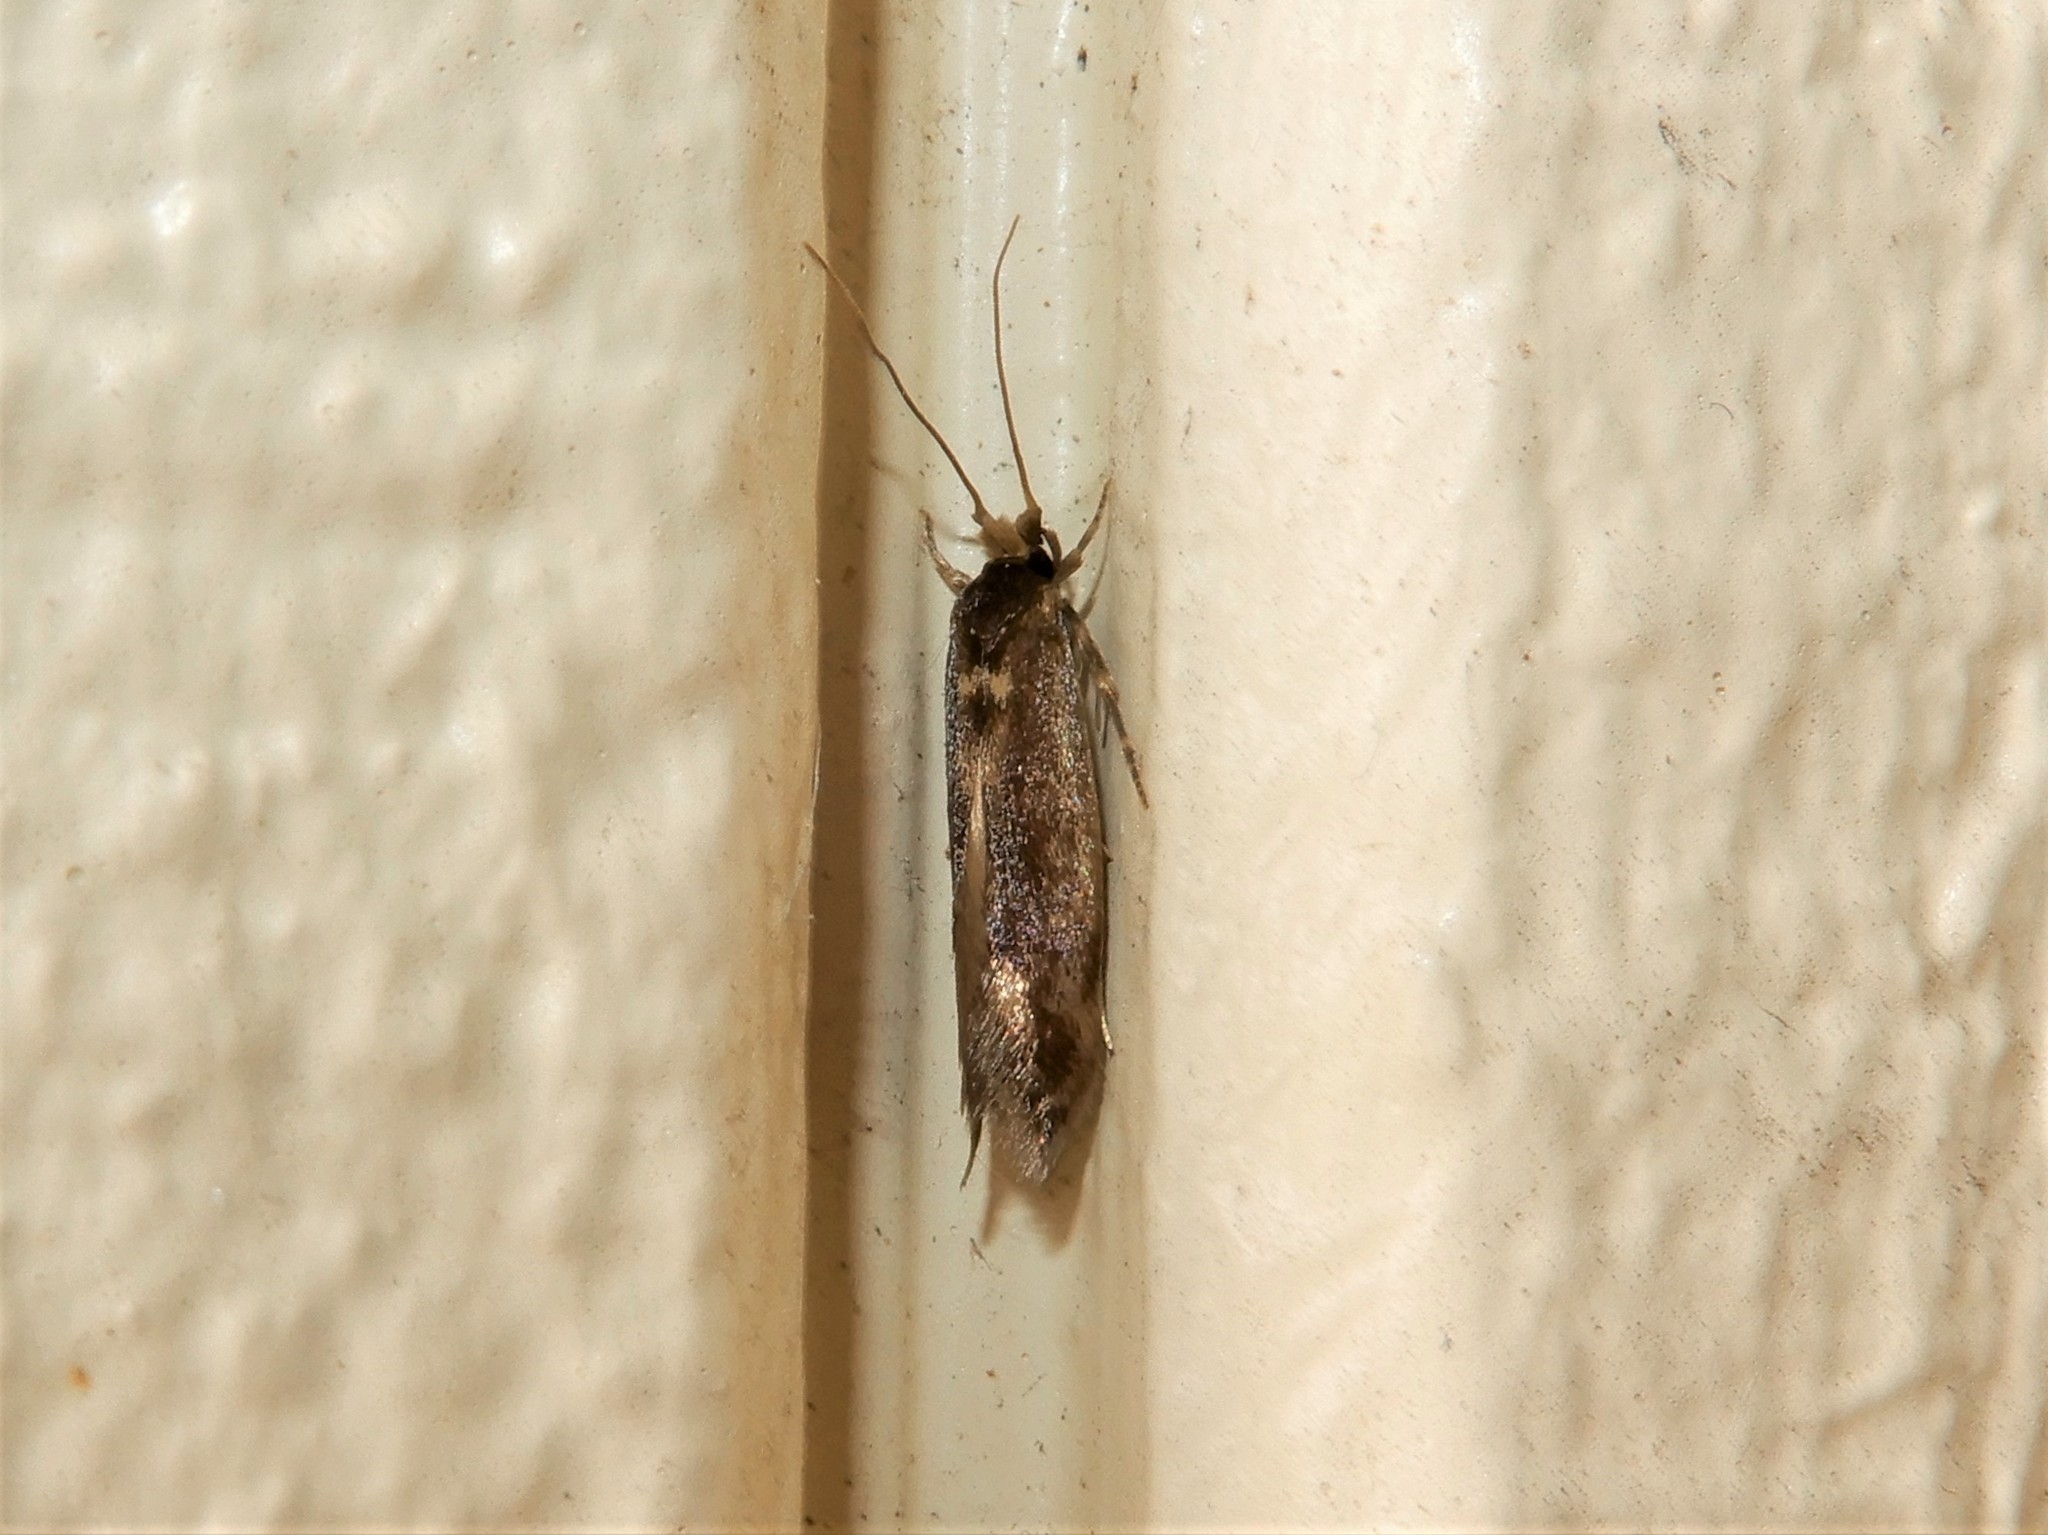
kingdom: Animalia
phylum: Arthropoda
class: Insecta
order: Lepidoptera
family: Tineidae
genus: Opogona
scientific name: Opogona omoscopa
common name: Moth
